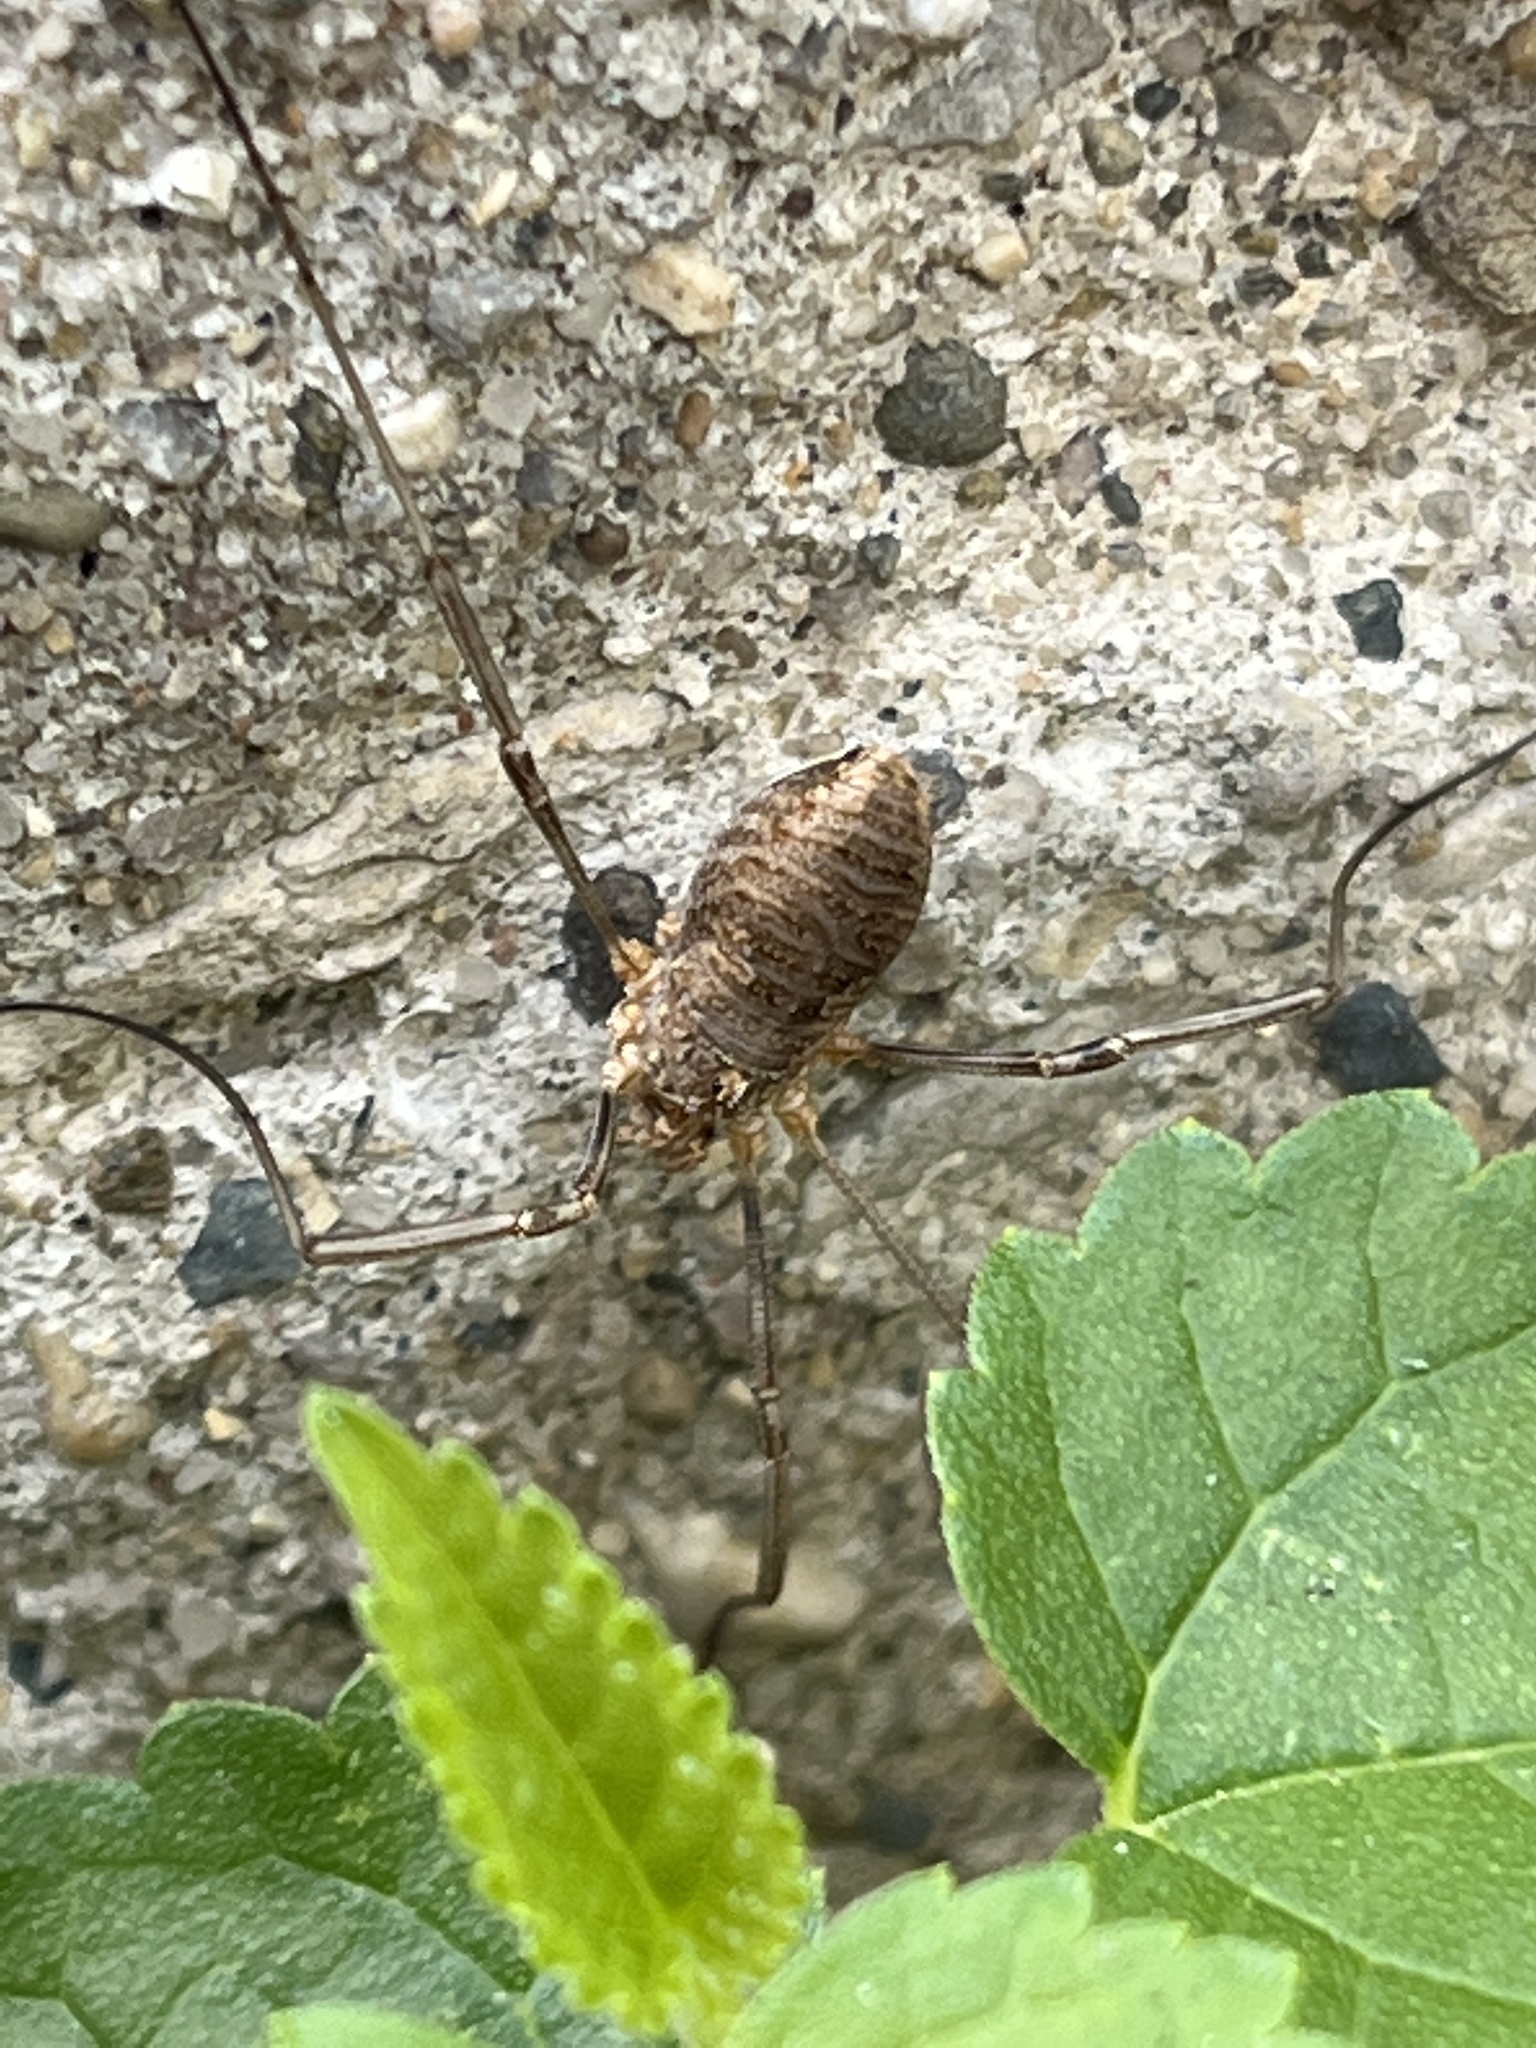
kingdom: Animalia
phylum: Arthropoda
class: Arachnida
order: Opiliones
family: Phalangiidae
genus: Phalangium
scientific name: Phalangium opilio
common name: Daddy longleg
